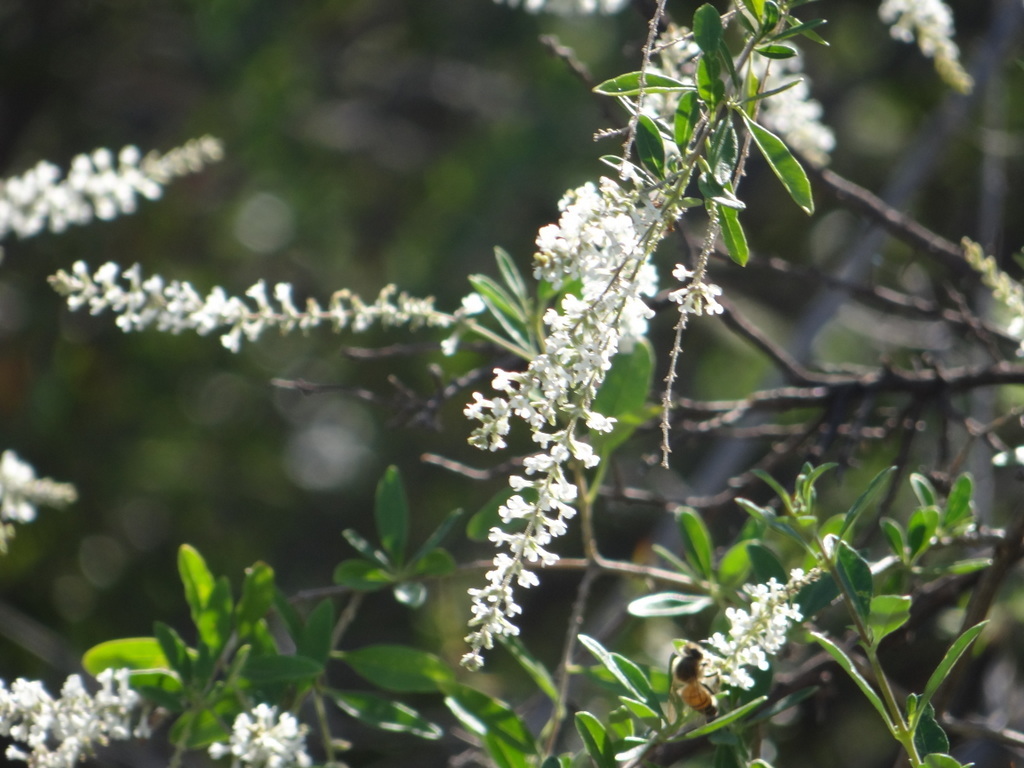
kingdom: Plantae
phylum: Tracheophyta
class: Magnoliopsida
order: Lamiales
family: Verbenaceae
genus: Aloysia
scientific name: Aloysia gratissima
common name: Common bee-brush
